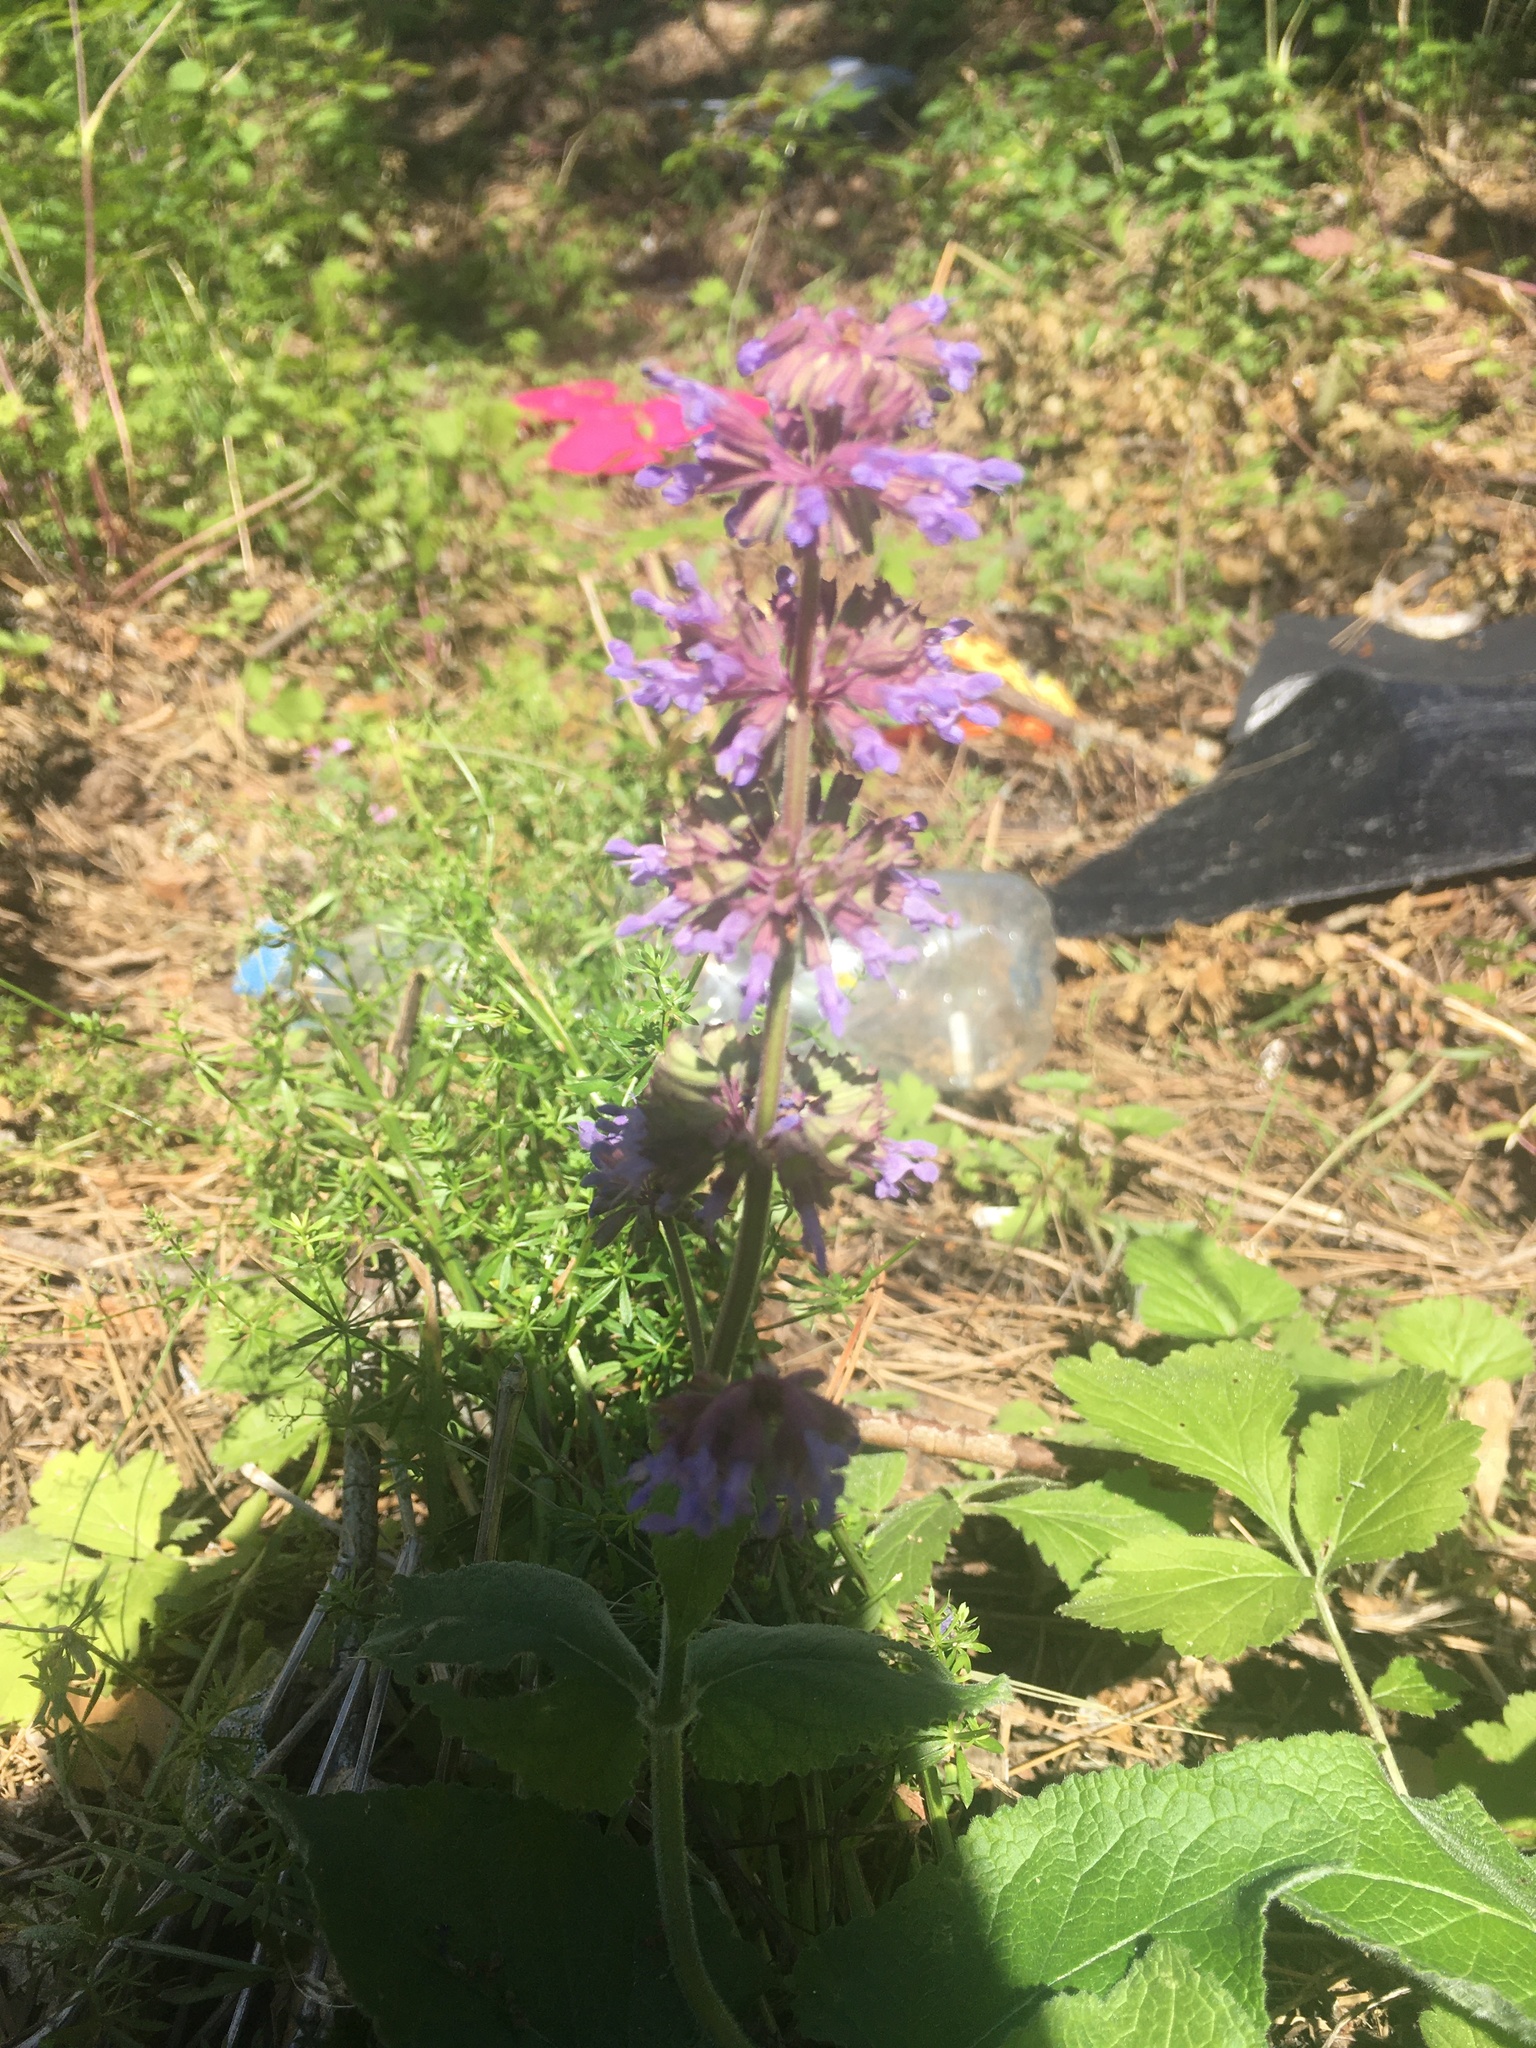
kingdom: Plantae
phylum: Tracheophyta
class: Magnoliopsida
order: Lamiales
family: Lamiaceae
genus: Salvia
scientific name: Salvia verticillata
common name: Whorled clary
